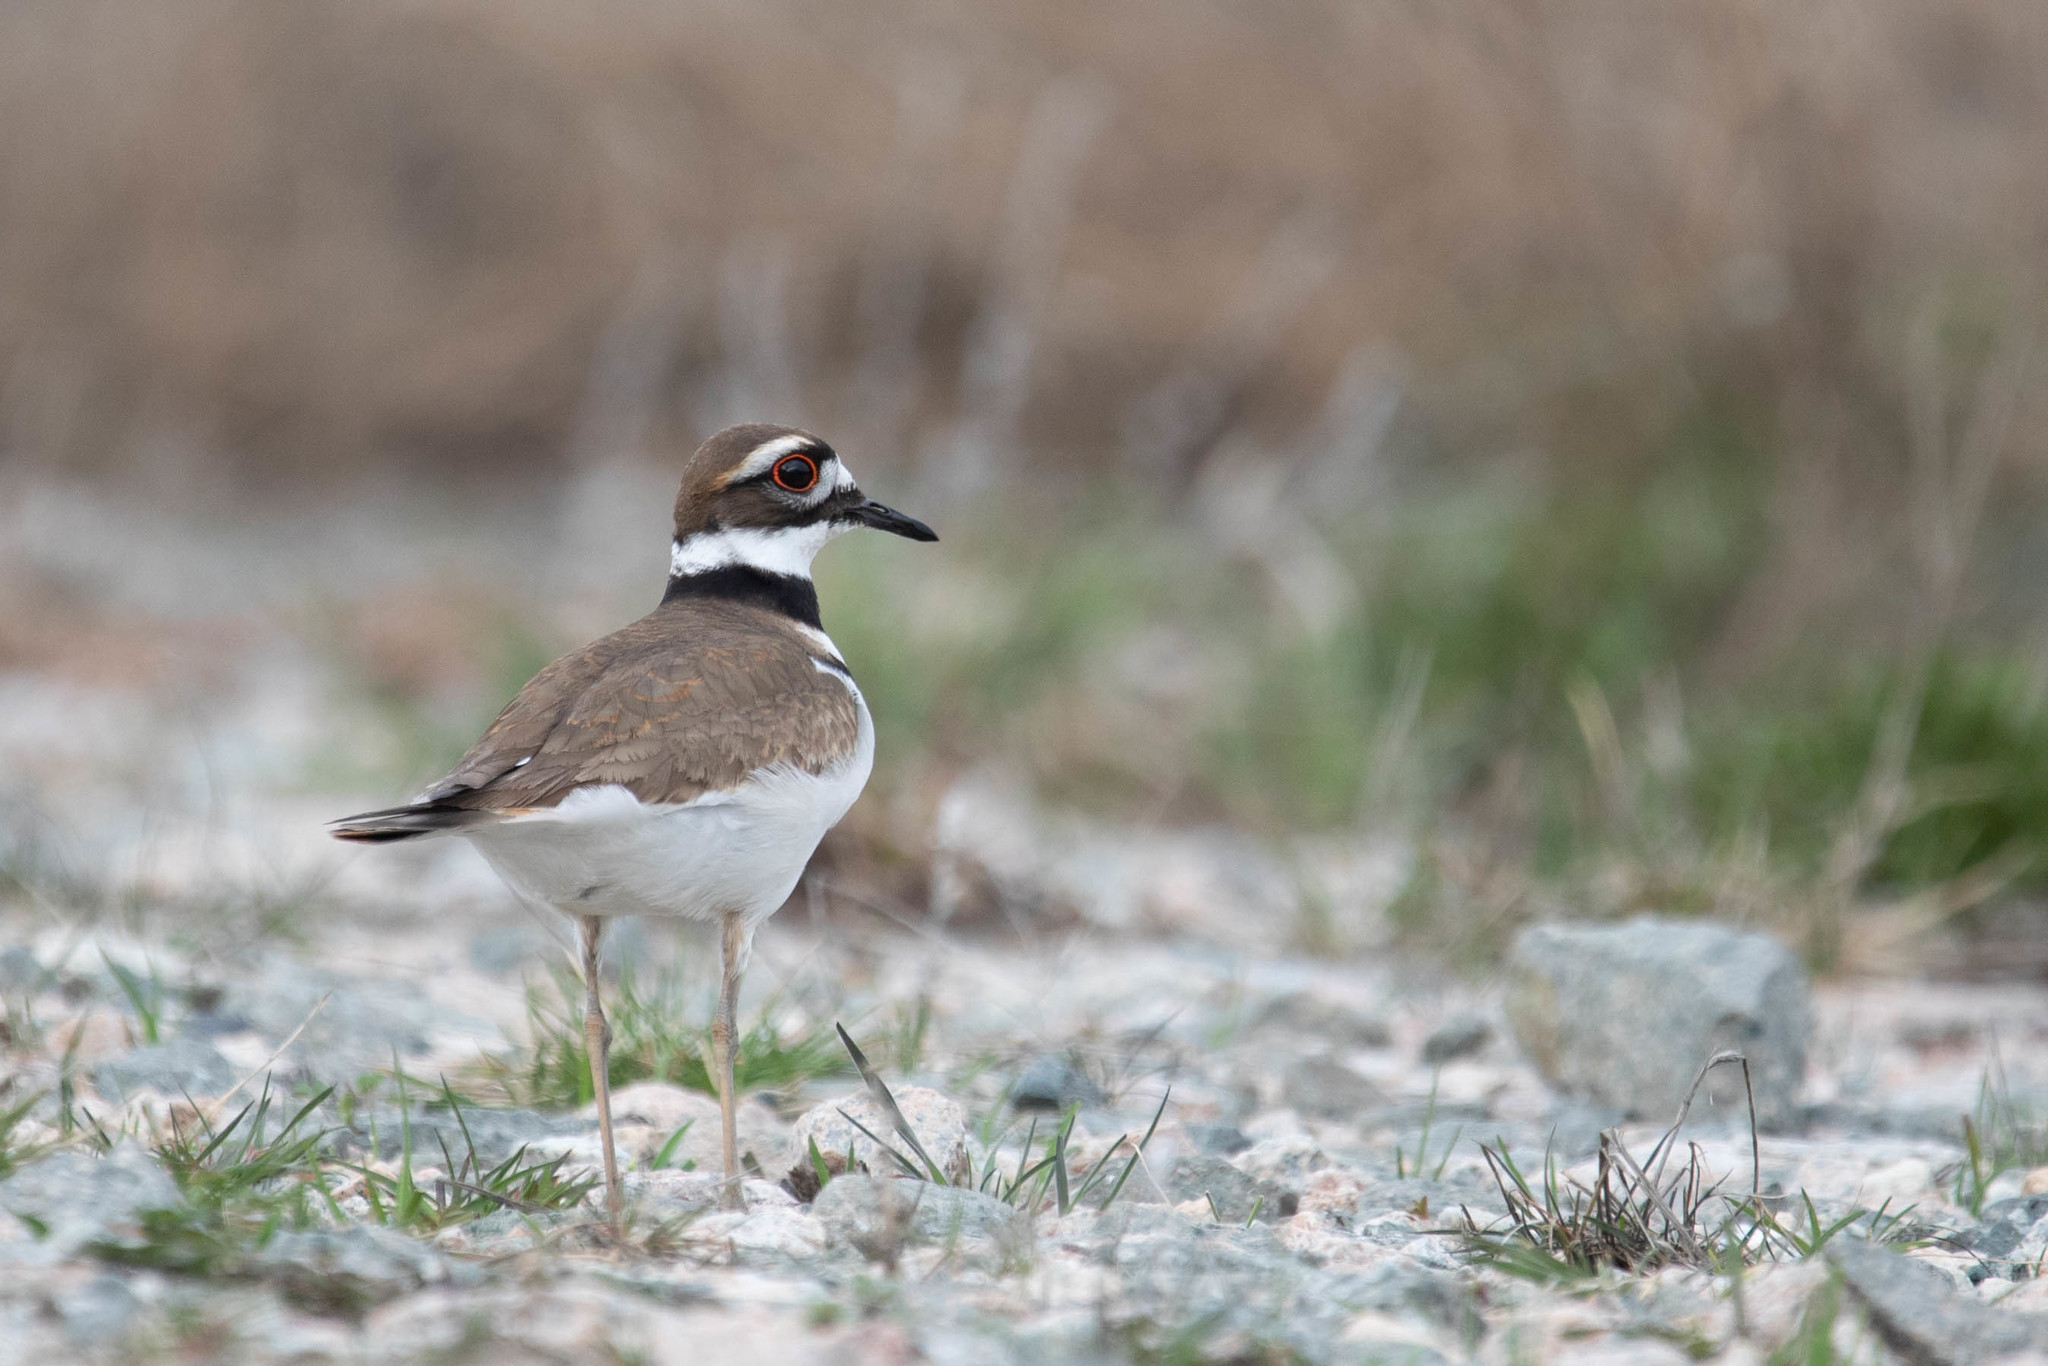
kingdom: Animalia
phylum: Chordata
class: Aves
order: Charadriiformes
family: Charadriidae
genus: Charadrius
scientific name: Charadrius vociferus
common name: Killdeer
